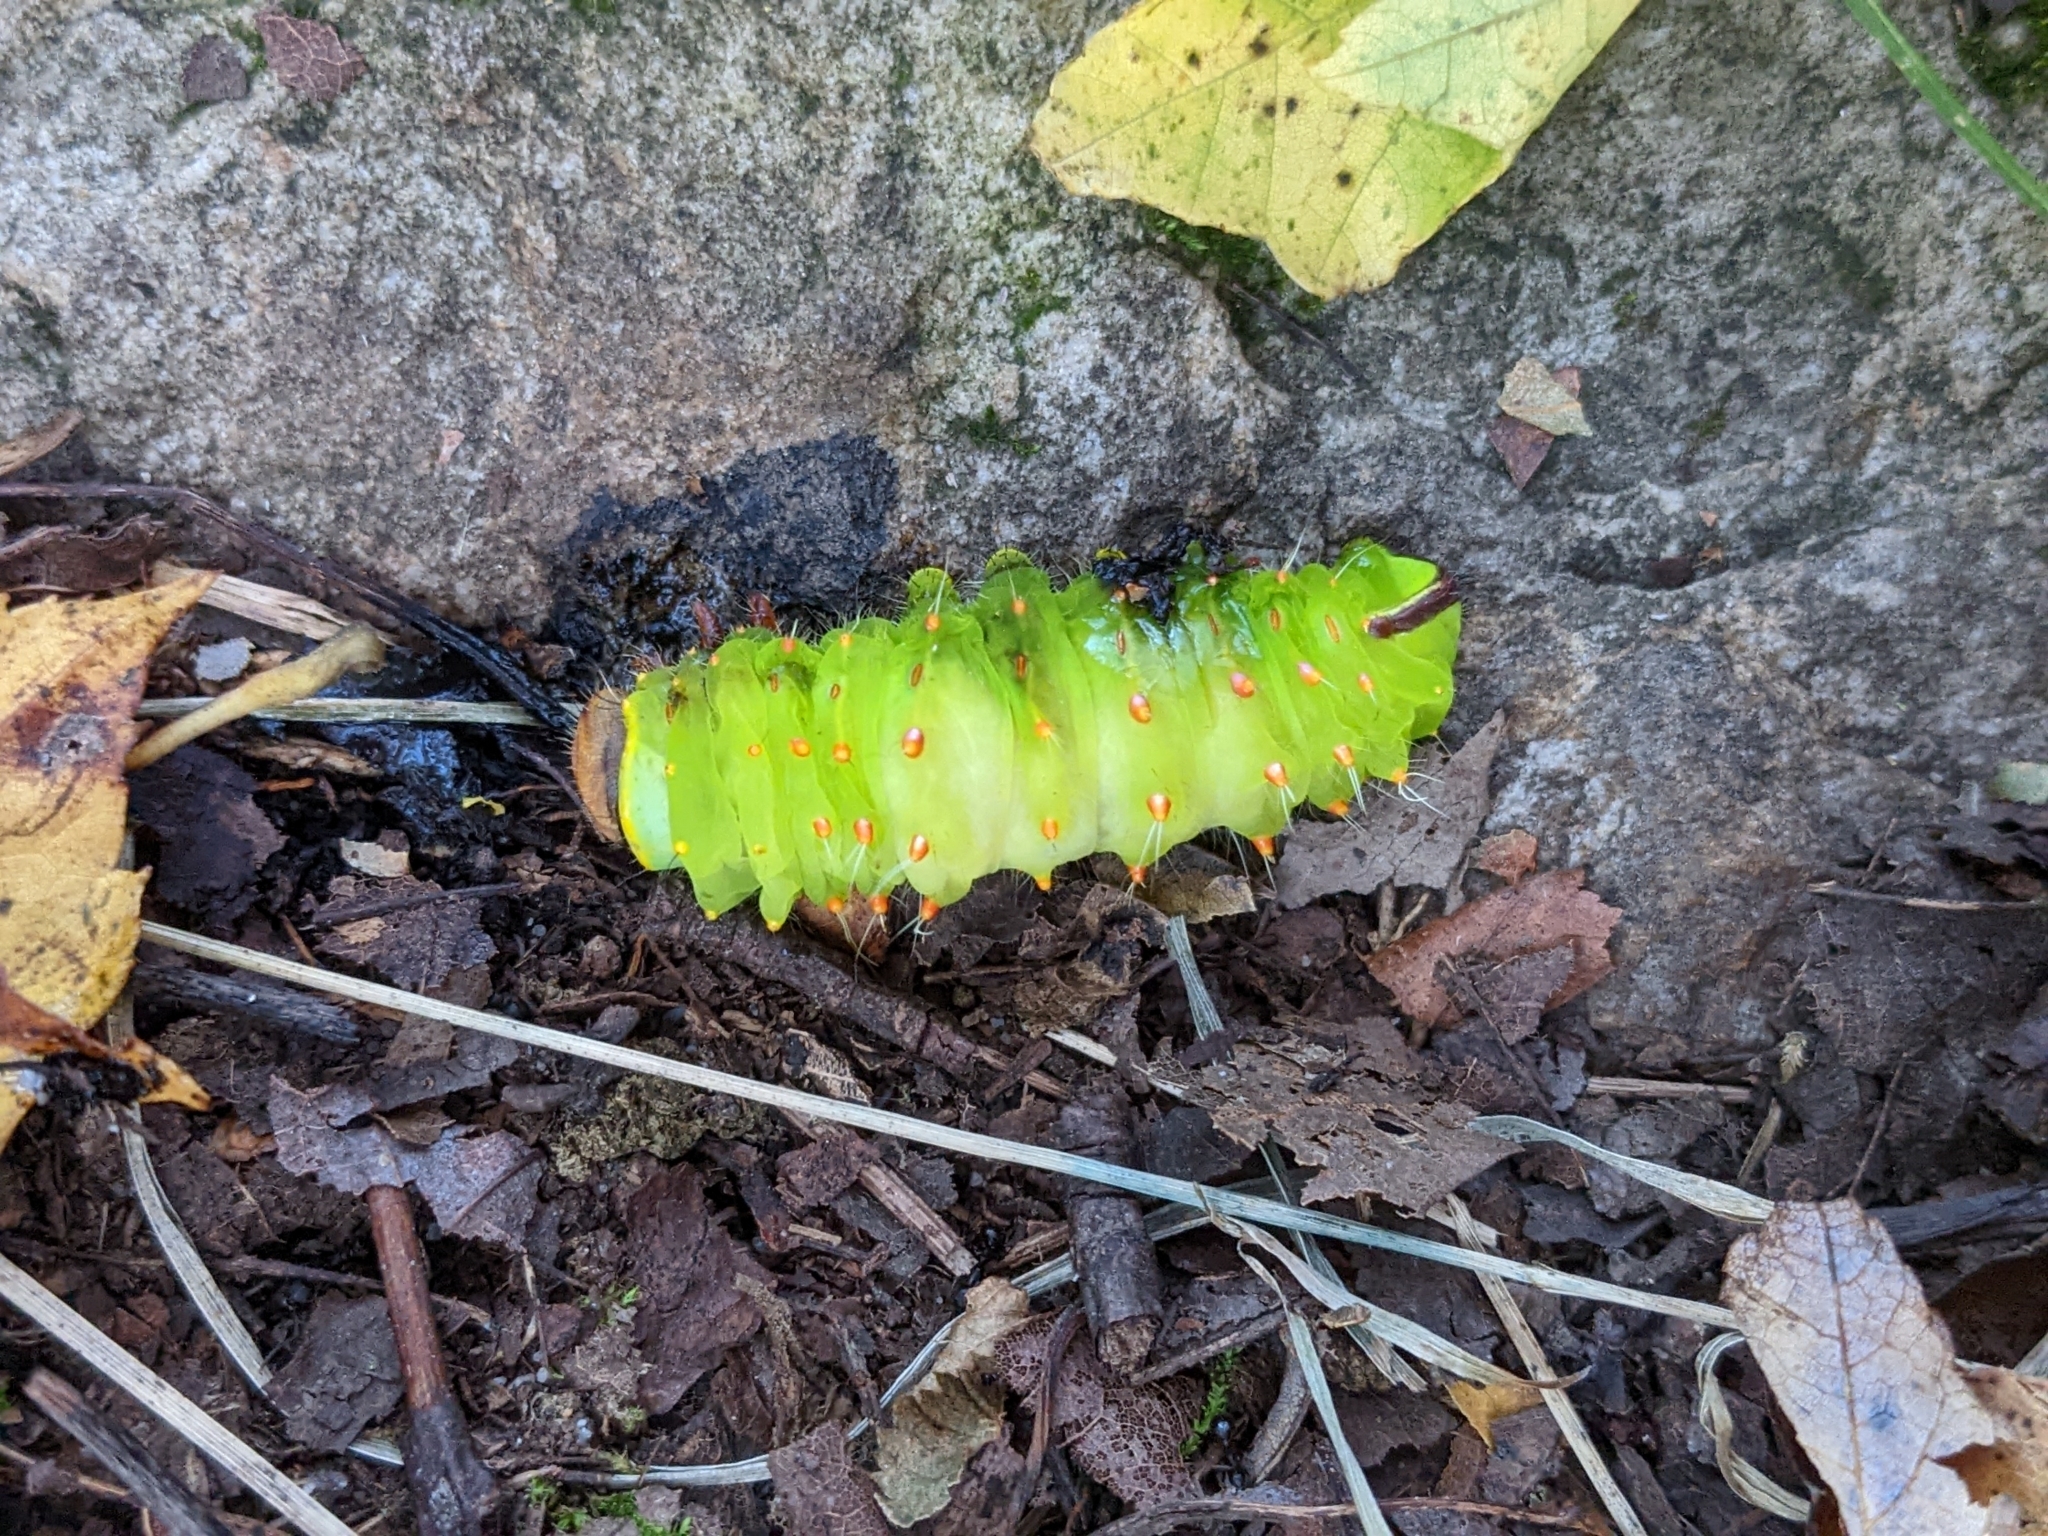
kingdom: Animalia
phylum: Arthropoda
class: Insecta
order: Lepidoptera
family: Saturniidae
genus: Antheraea
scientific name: Antheraea polyphemus
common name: Polyphemus moth
